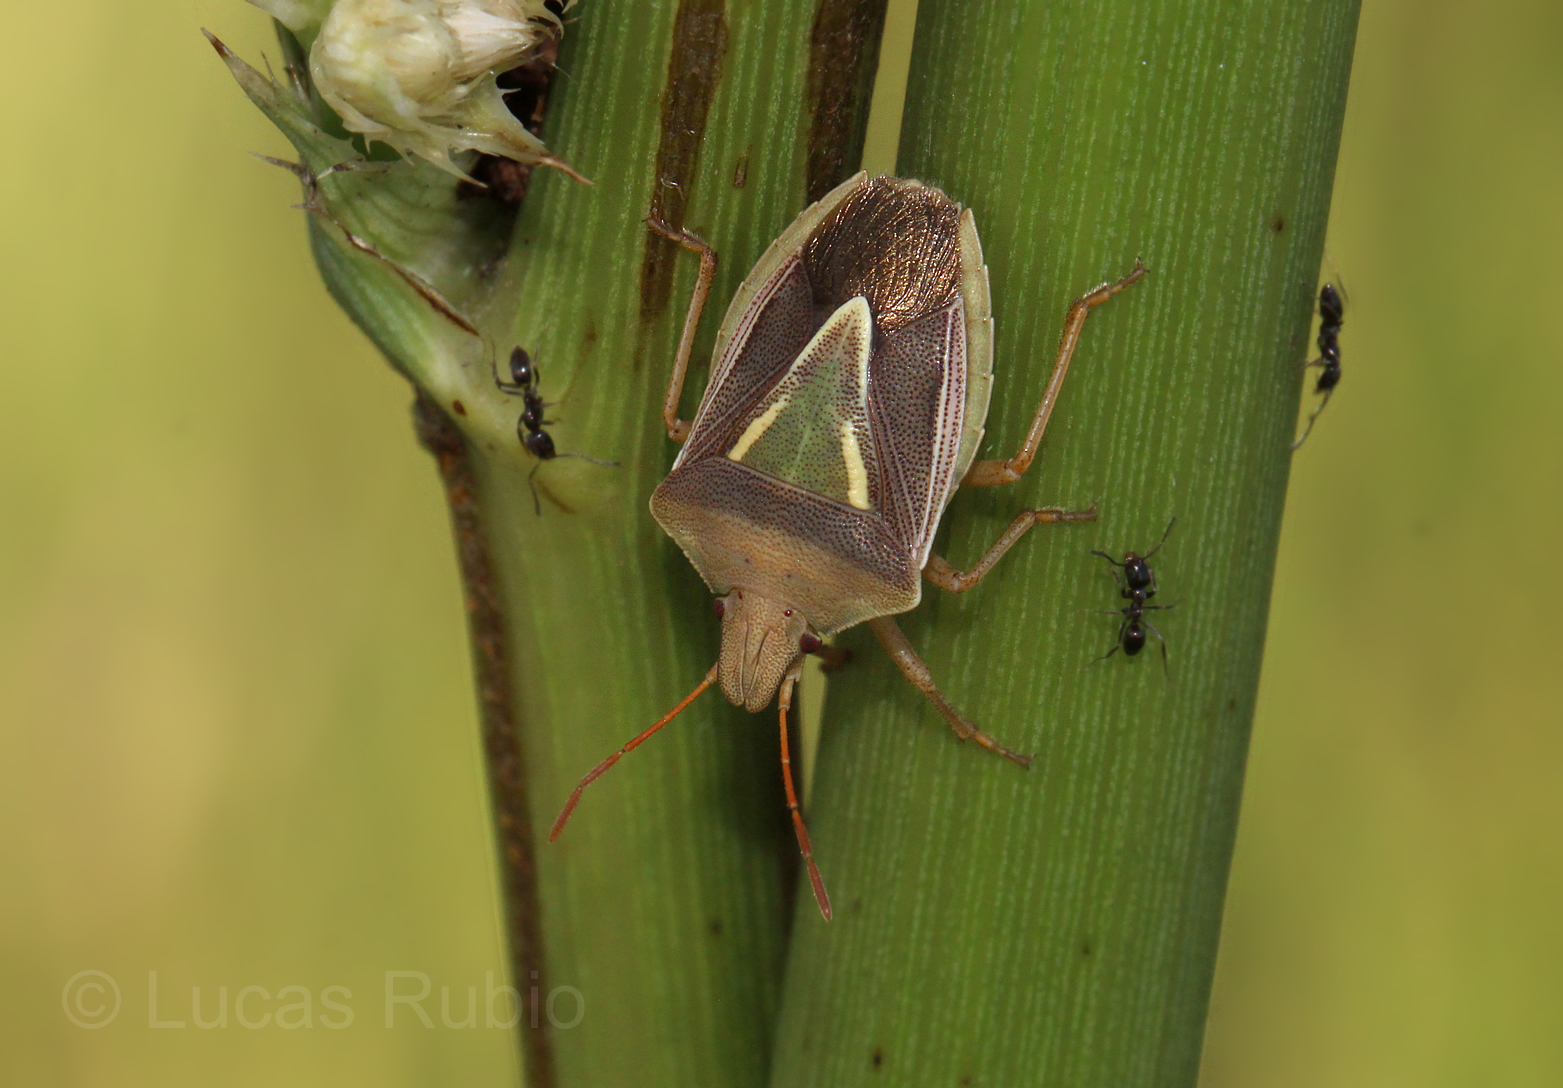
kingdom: Animalia
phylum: Arthropoda
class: Insecta
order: Hemiptera
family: Pentatomidae
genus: Acledra
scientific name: Acledra
